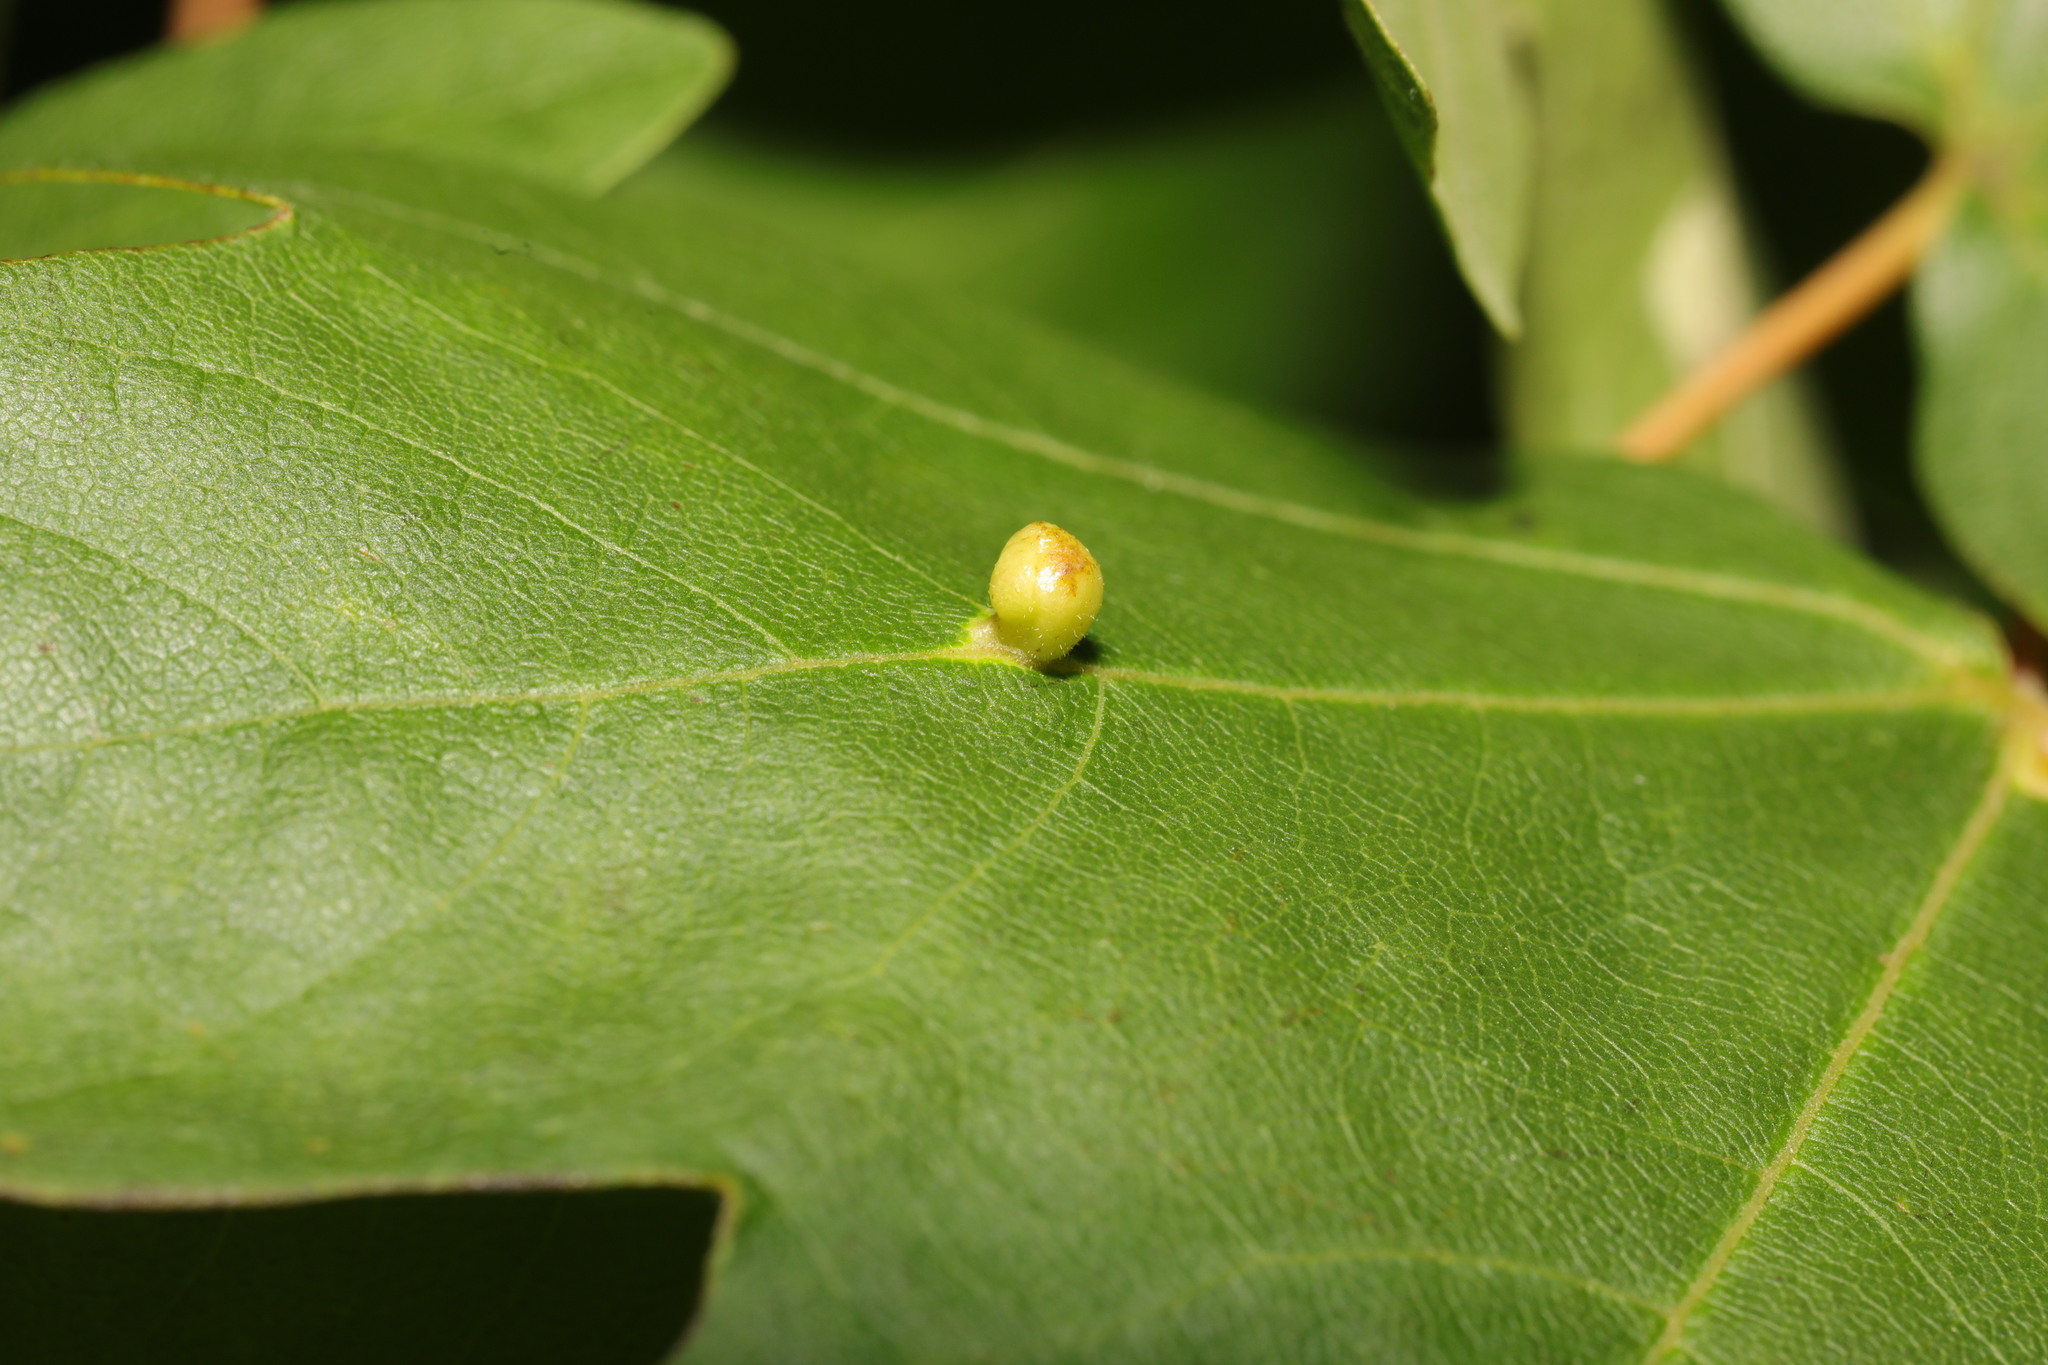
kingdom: Animalia
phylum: Arthropoda
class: Arachnida
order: Trombidiformes
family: Eriophyidae
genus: Aceria
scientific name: Aceria macrochelus
